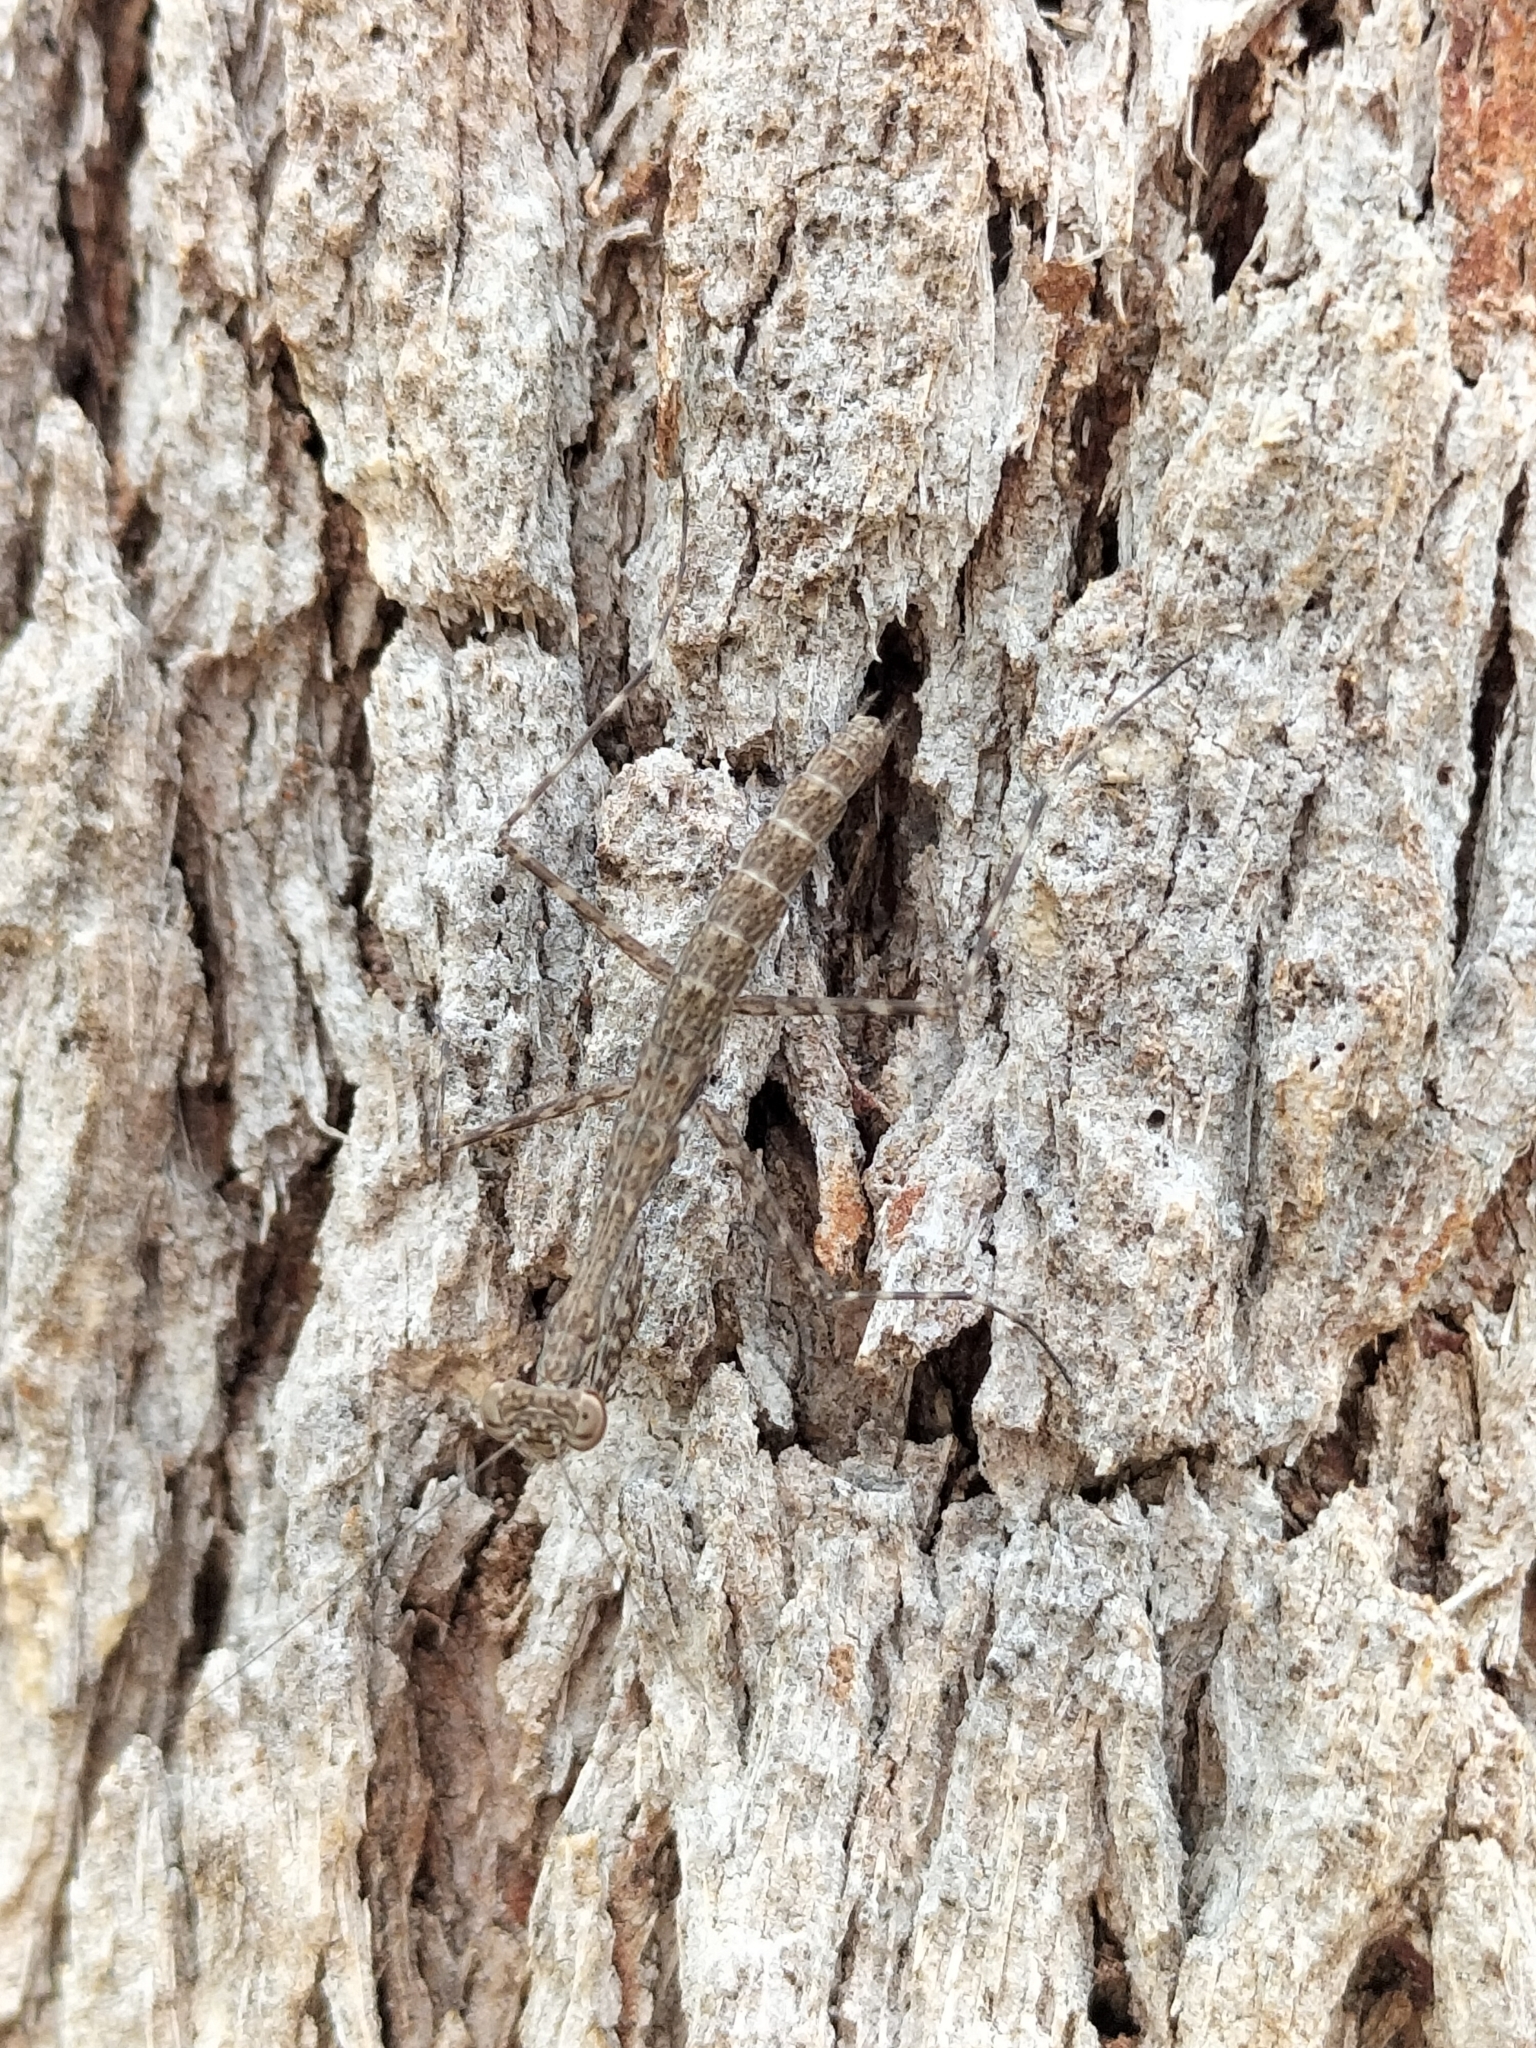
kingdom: Animalia
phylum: Arthropoda
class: Insecta
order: Mantodea
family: Nanomantidae
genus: Ciulfina
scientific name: Ciulfina biseriata
